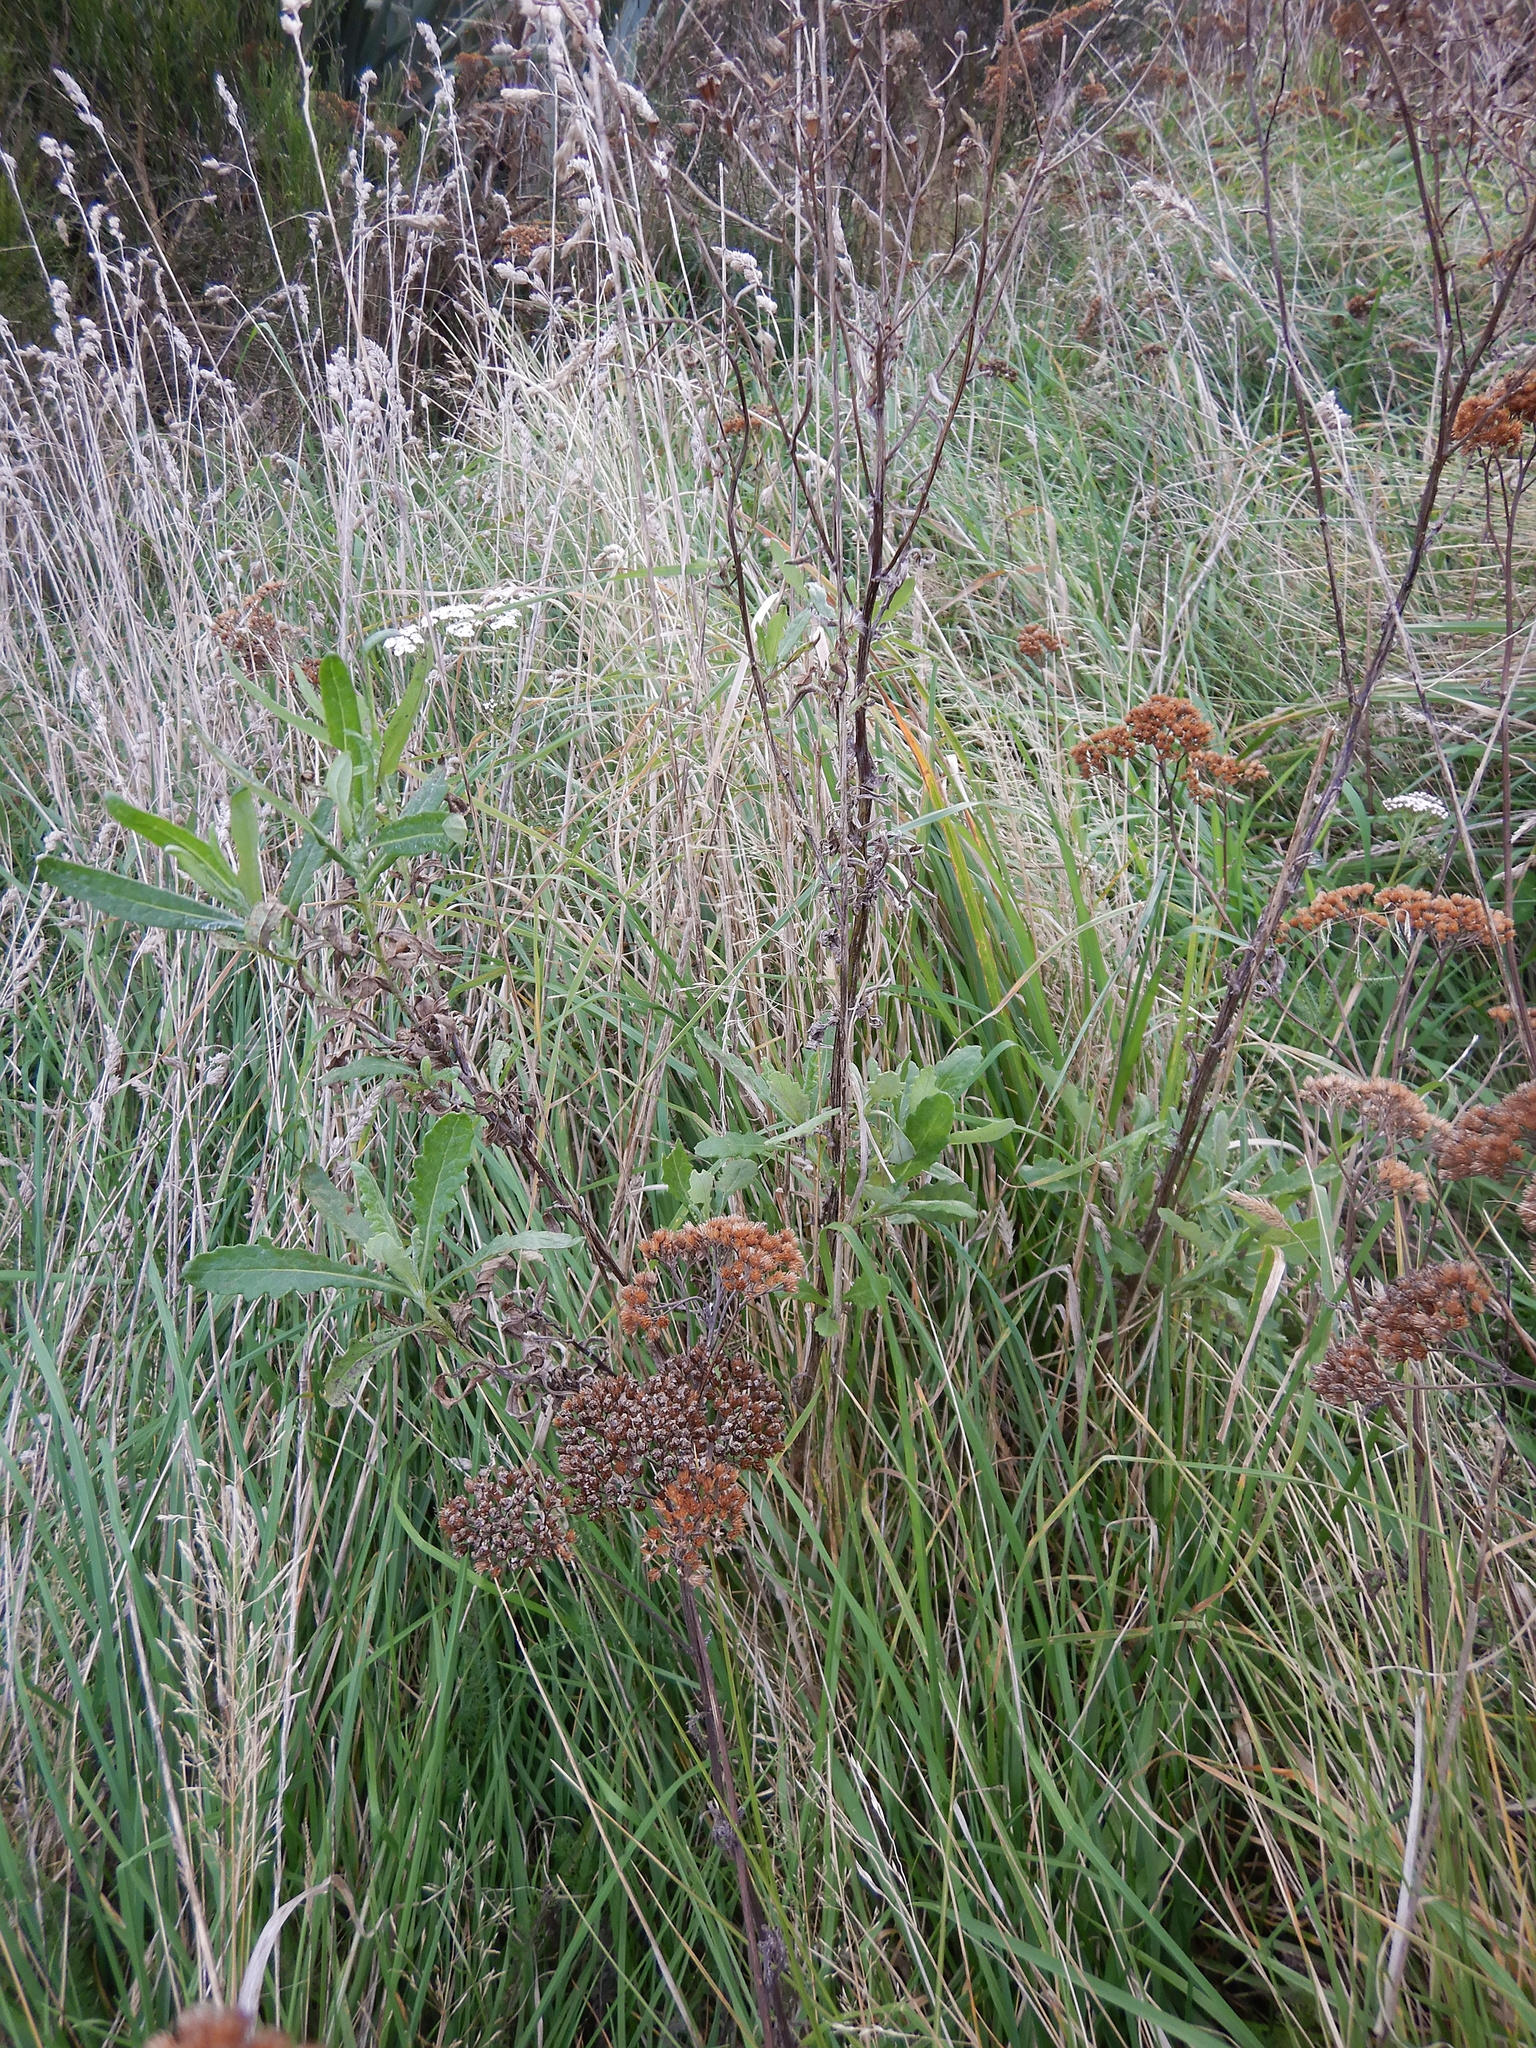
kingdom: Plantae
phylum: Tracheophyta
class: Magnoliopsida
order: Asterales
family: Asteraceae
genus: Senecio
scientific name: Senecio glomeratus
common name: Cutleaf burnweed
